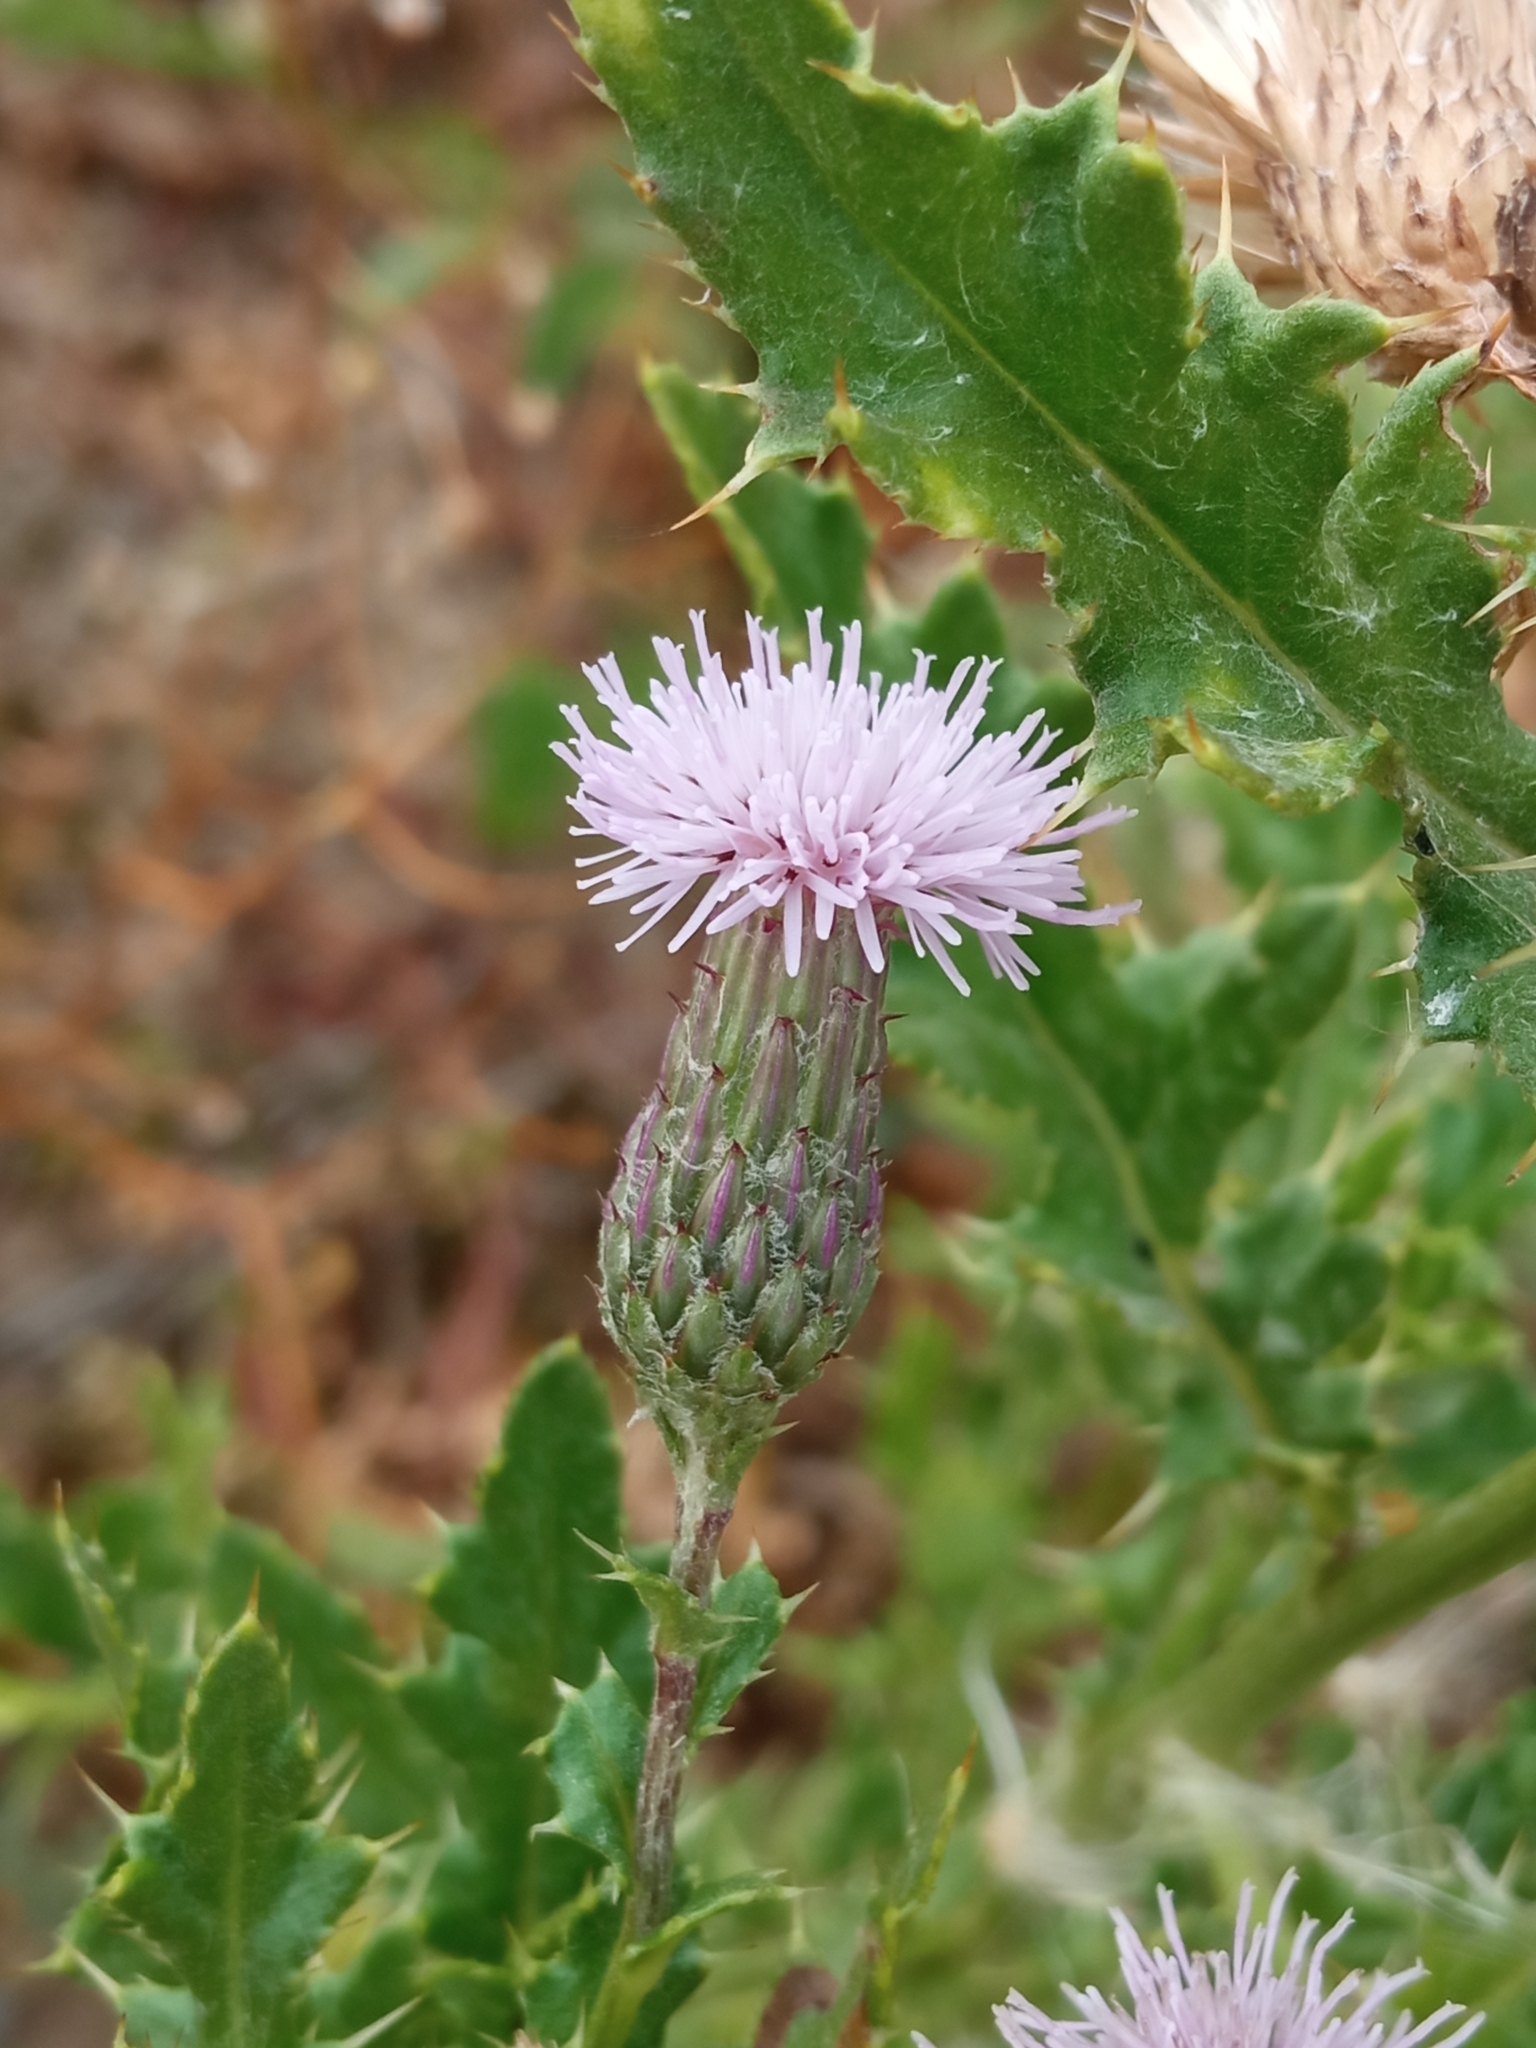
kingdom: Plantae
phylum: Tracheophyta
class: Magnoliopsida
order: Asterales
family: Asteraceae
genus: Cirsium
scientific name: Cirsium arvense
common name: Creeping thistle
